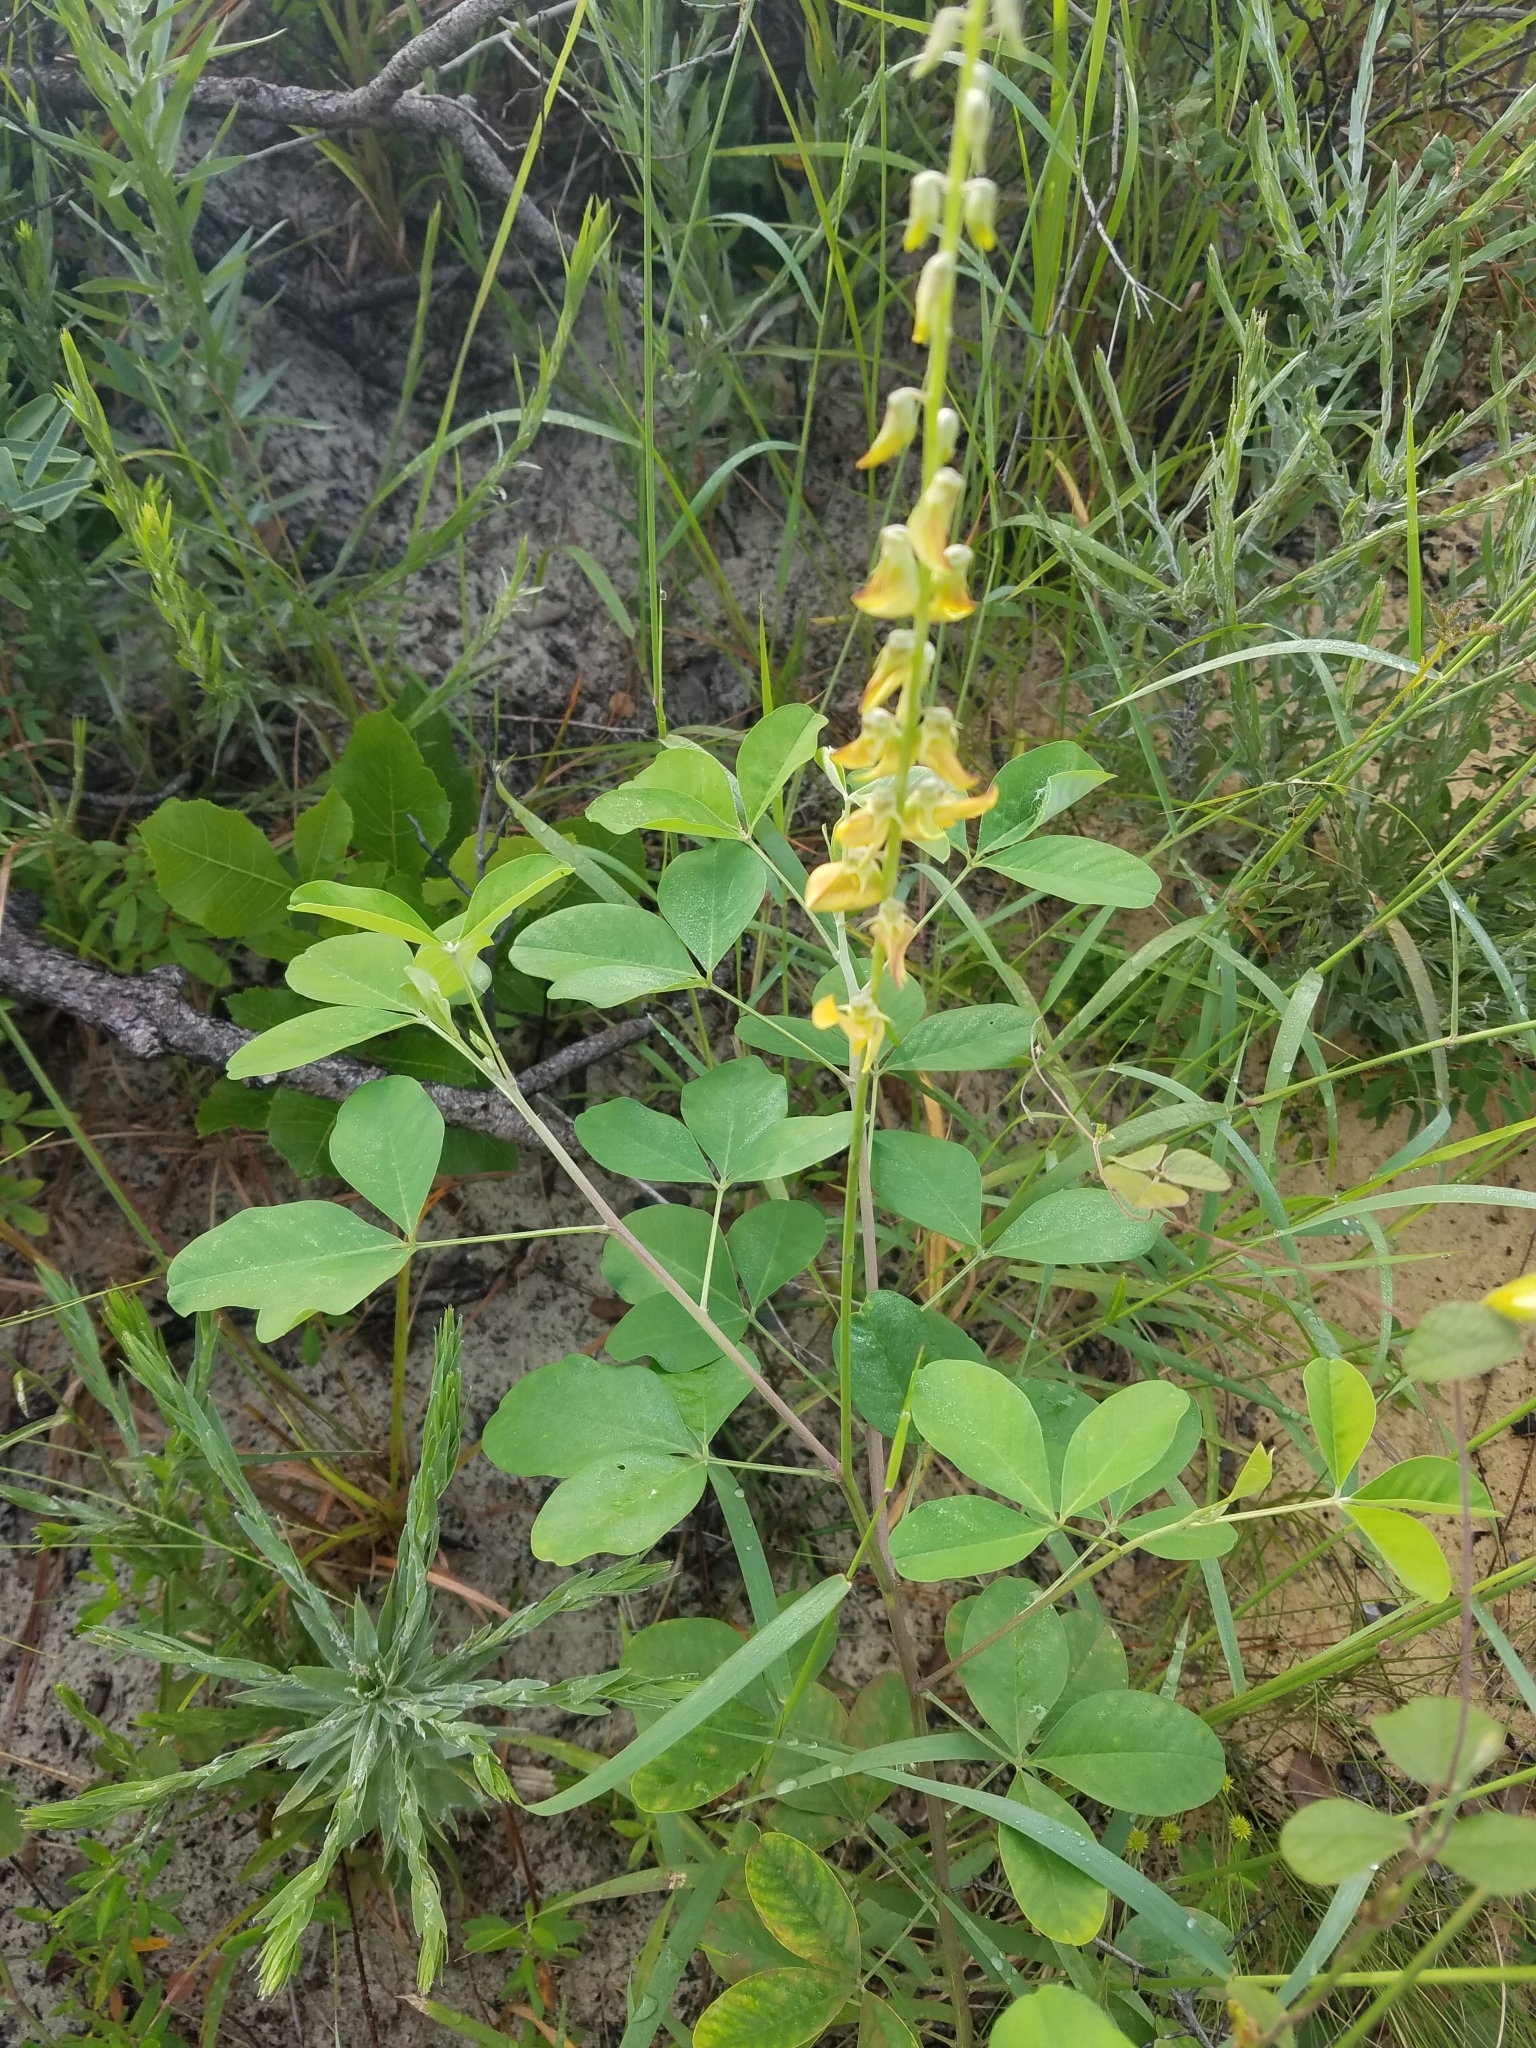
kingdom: Plantae
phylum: Tracheophyta
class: Magnoliopsida
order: Fabales
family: Fabaceae
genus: Crotalaria
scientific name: Crotalaria pallida
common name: Smooth rattlebox
